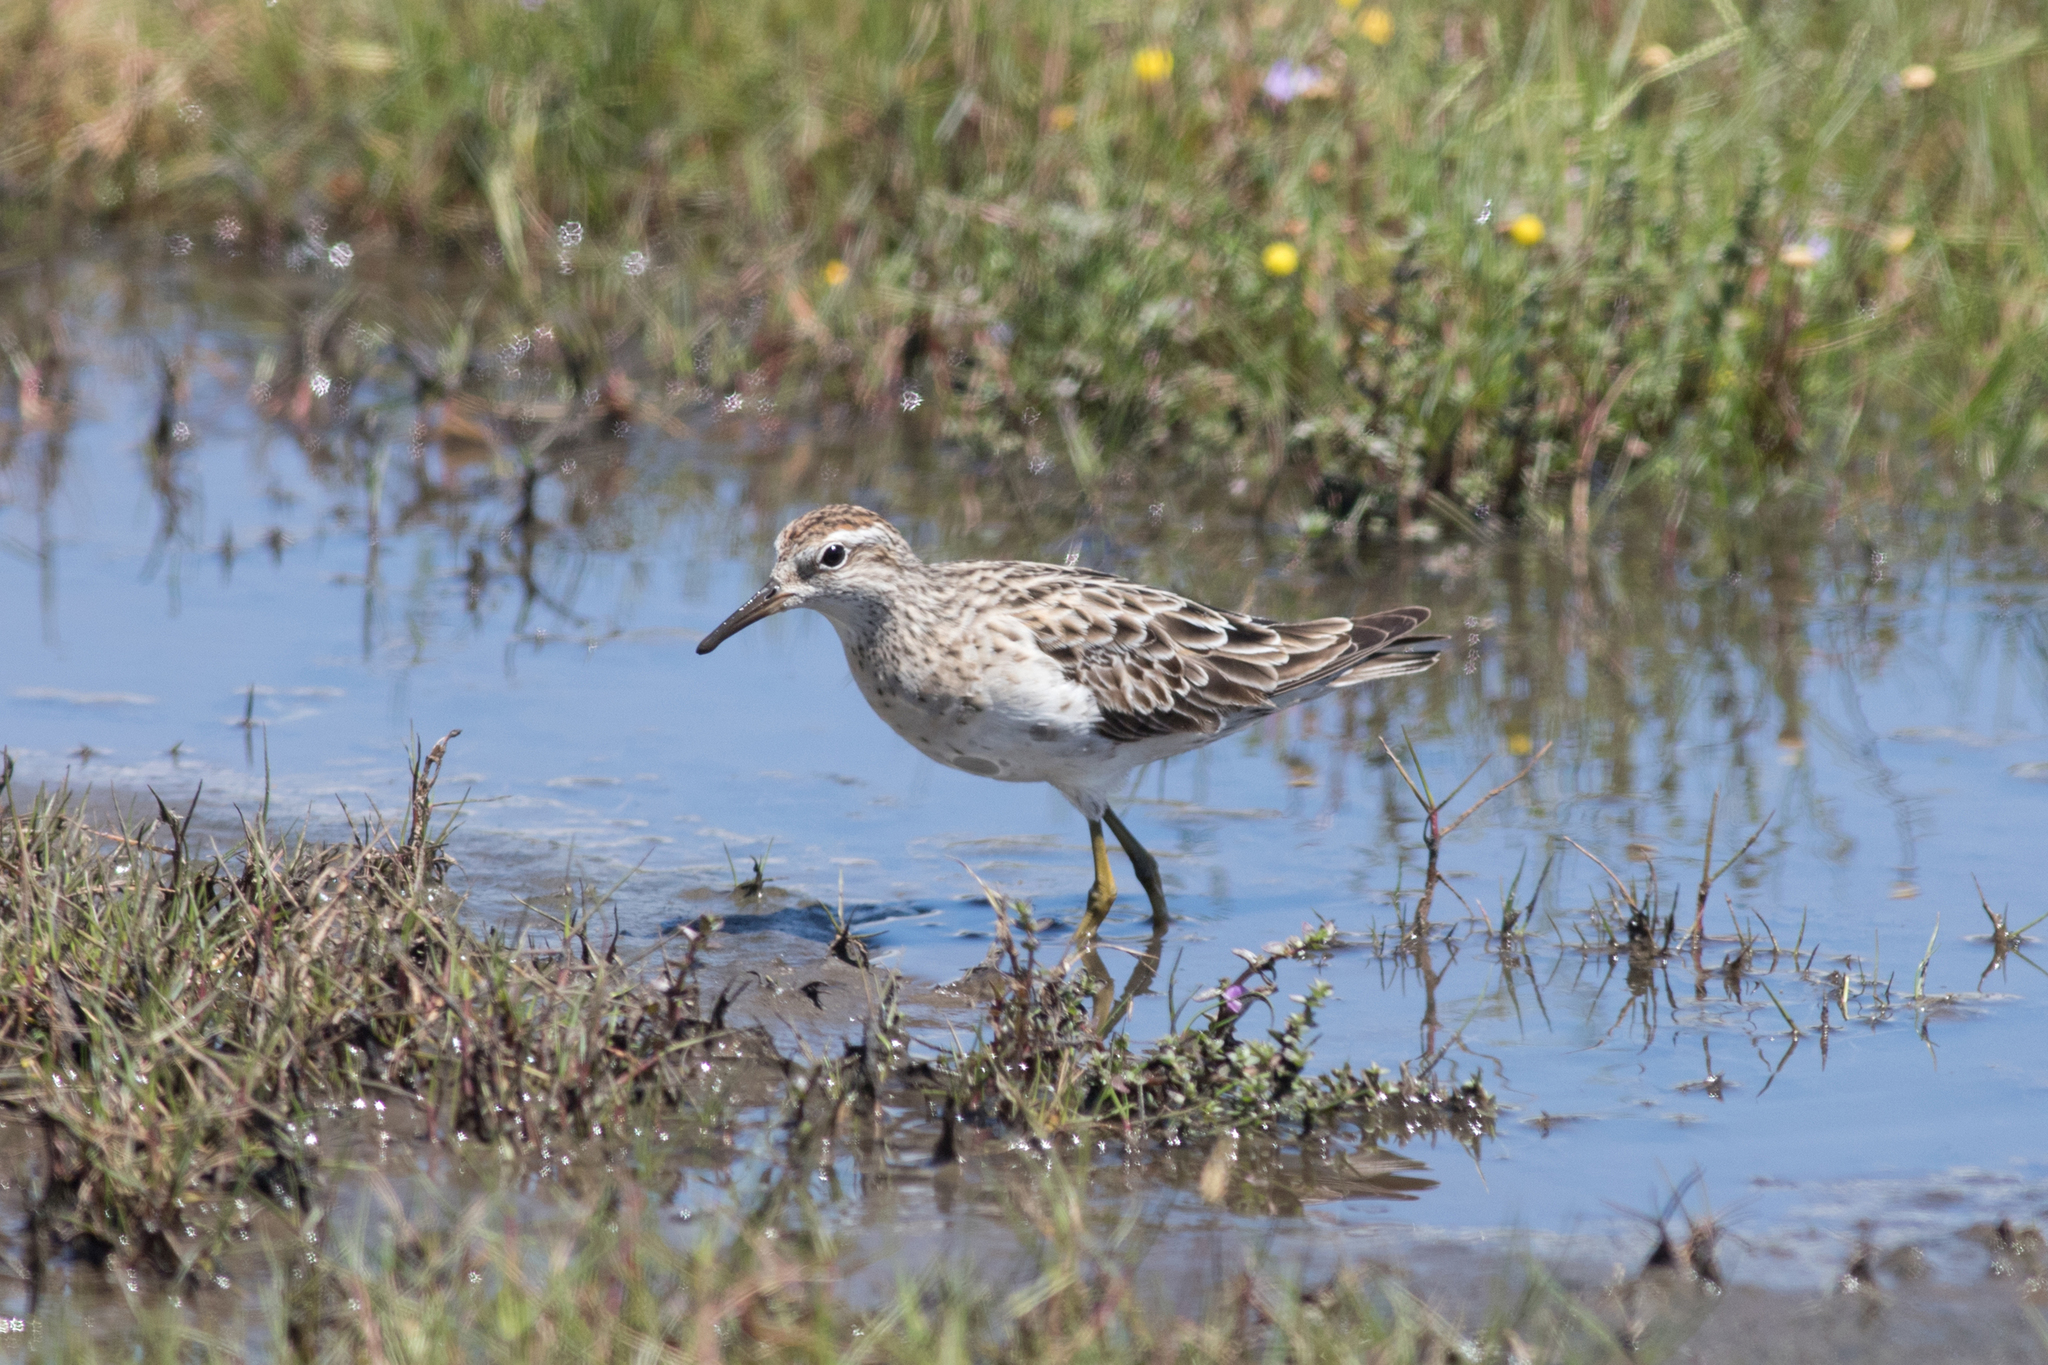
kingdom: Animalia
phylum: Chordata
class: Aves
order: Charadriiformes
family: Scolopacidae
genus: Calidris
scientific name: Calidris acuminata
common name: Sharp-tailed sandpiper
